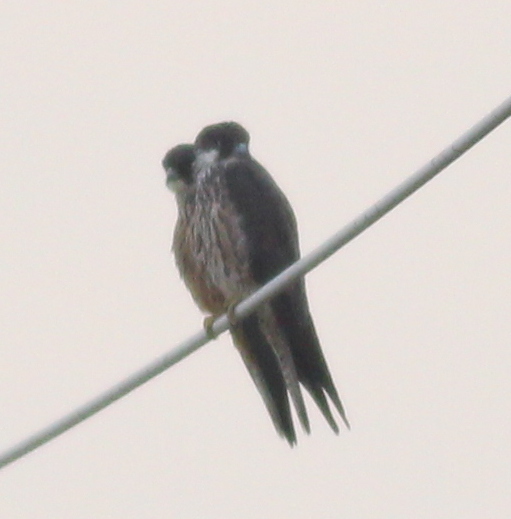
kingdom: Animalia
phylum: Chordata
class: Aves
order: Falconiformes
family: Falconidae
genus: Falco
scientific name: Falco eleonorae
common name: Eleonora's falcon
